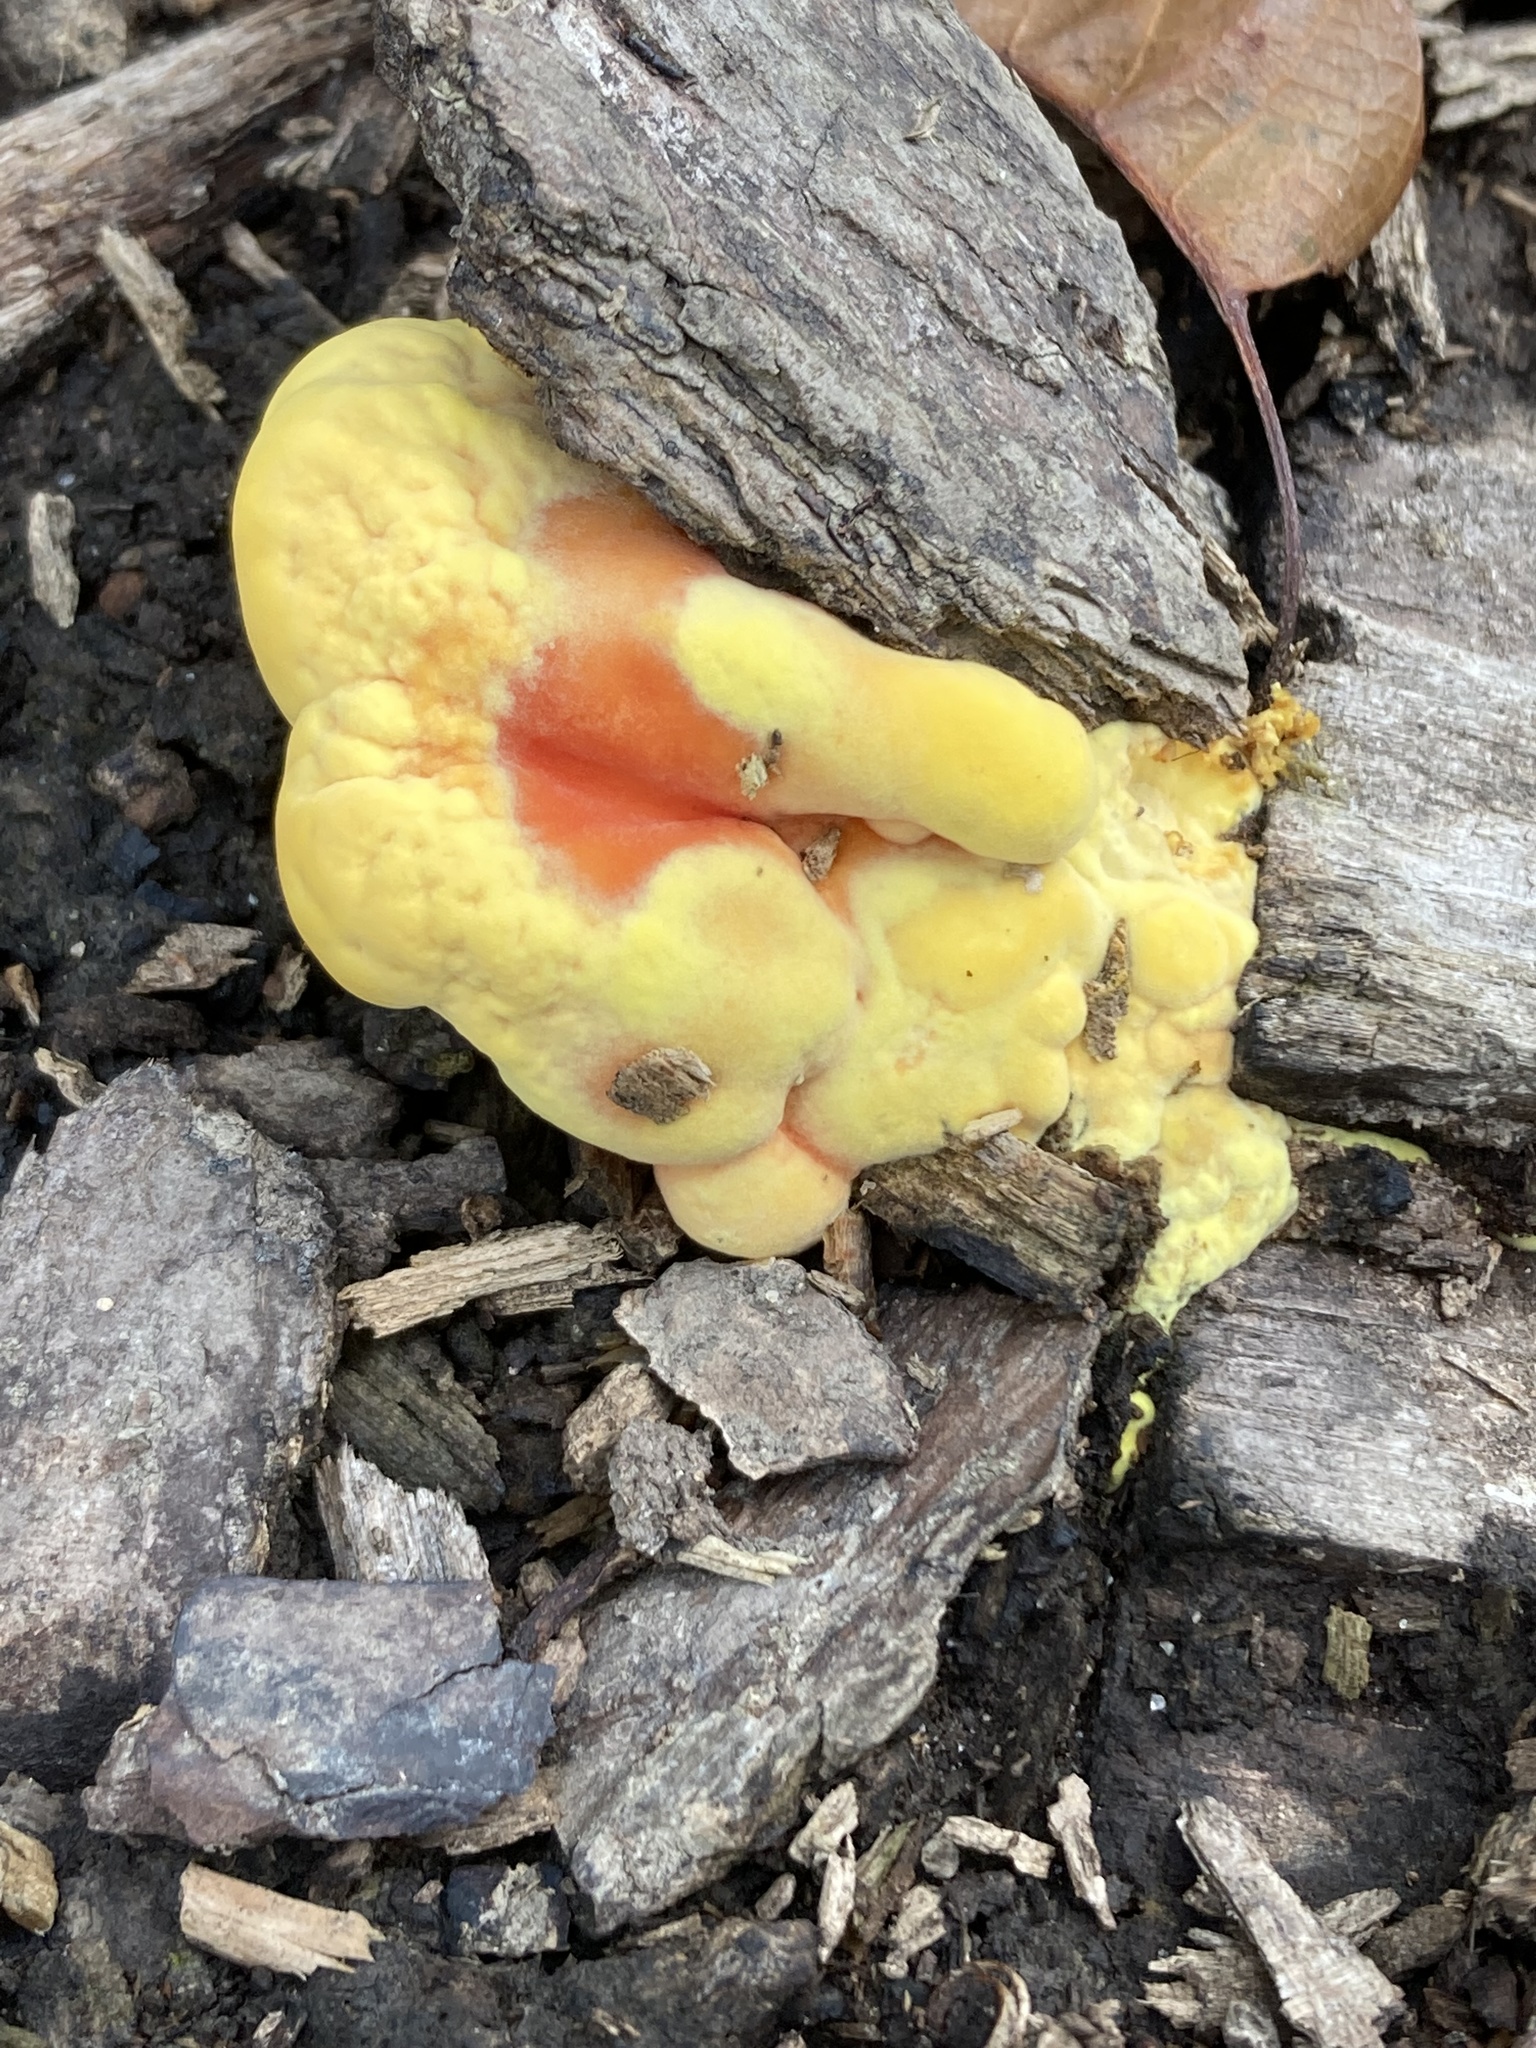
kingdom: Fungi
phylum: Basidiomycota
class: Agaricomycetes
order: Polyporales
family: Laetiporaceae
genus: Laetiporus
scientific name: Laetiporus sulphureus
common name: Chicken of the woods
